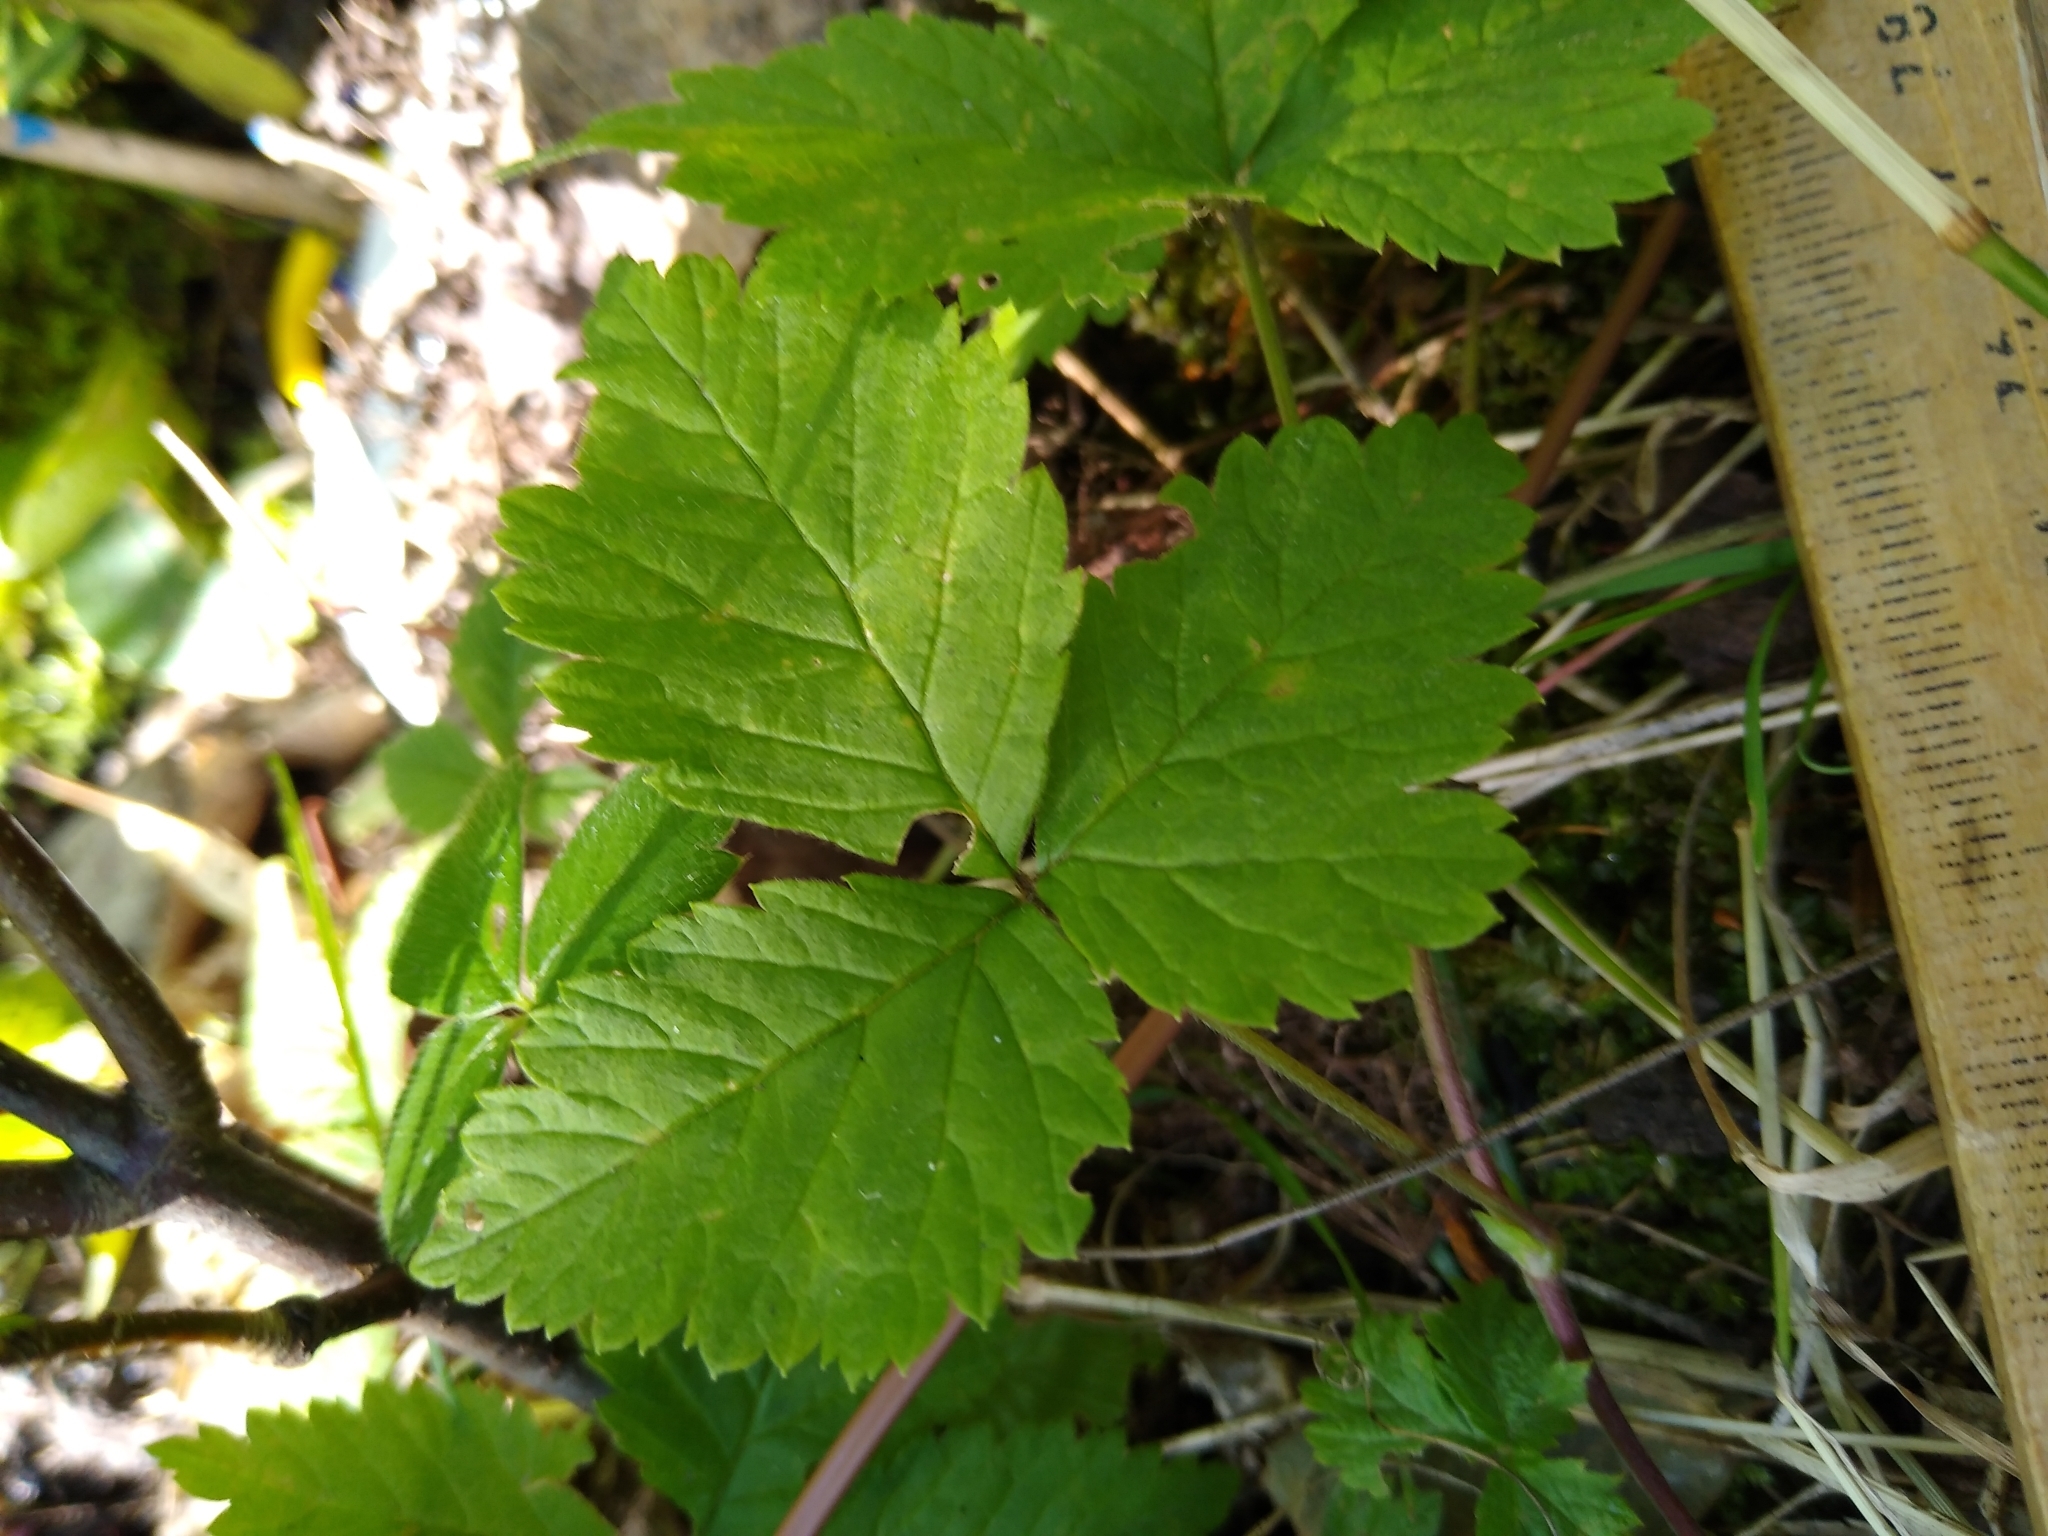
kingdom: Plantae
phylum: Tracheophyta
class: Magnoliopsida
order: Rosales
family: Rosaceae
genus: Rubus
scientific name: Rubus pubescens
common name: Dwarf raspberry
